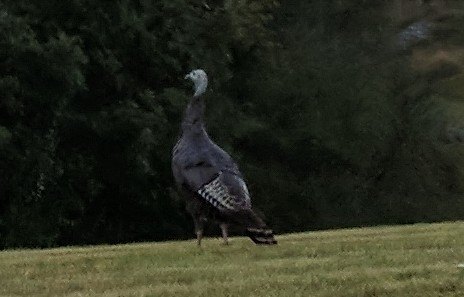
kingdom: Animalia
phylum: Chordata
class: Aves
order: Galliformes
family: Phasianidae
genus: Meleagris
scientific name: Meleagris gallopavo
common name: Wild turkey
